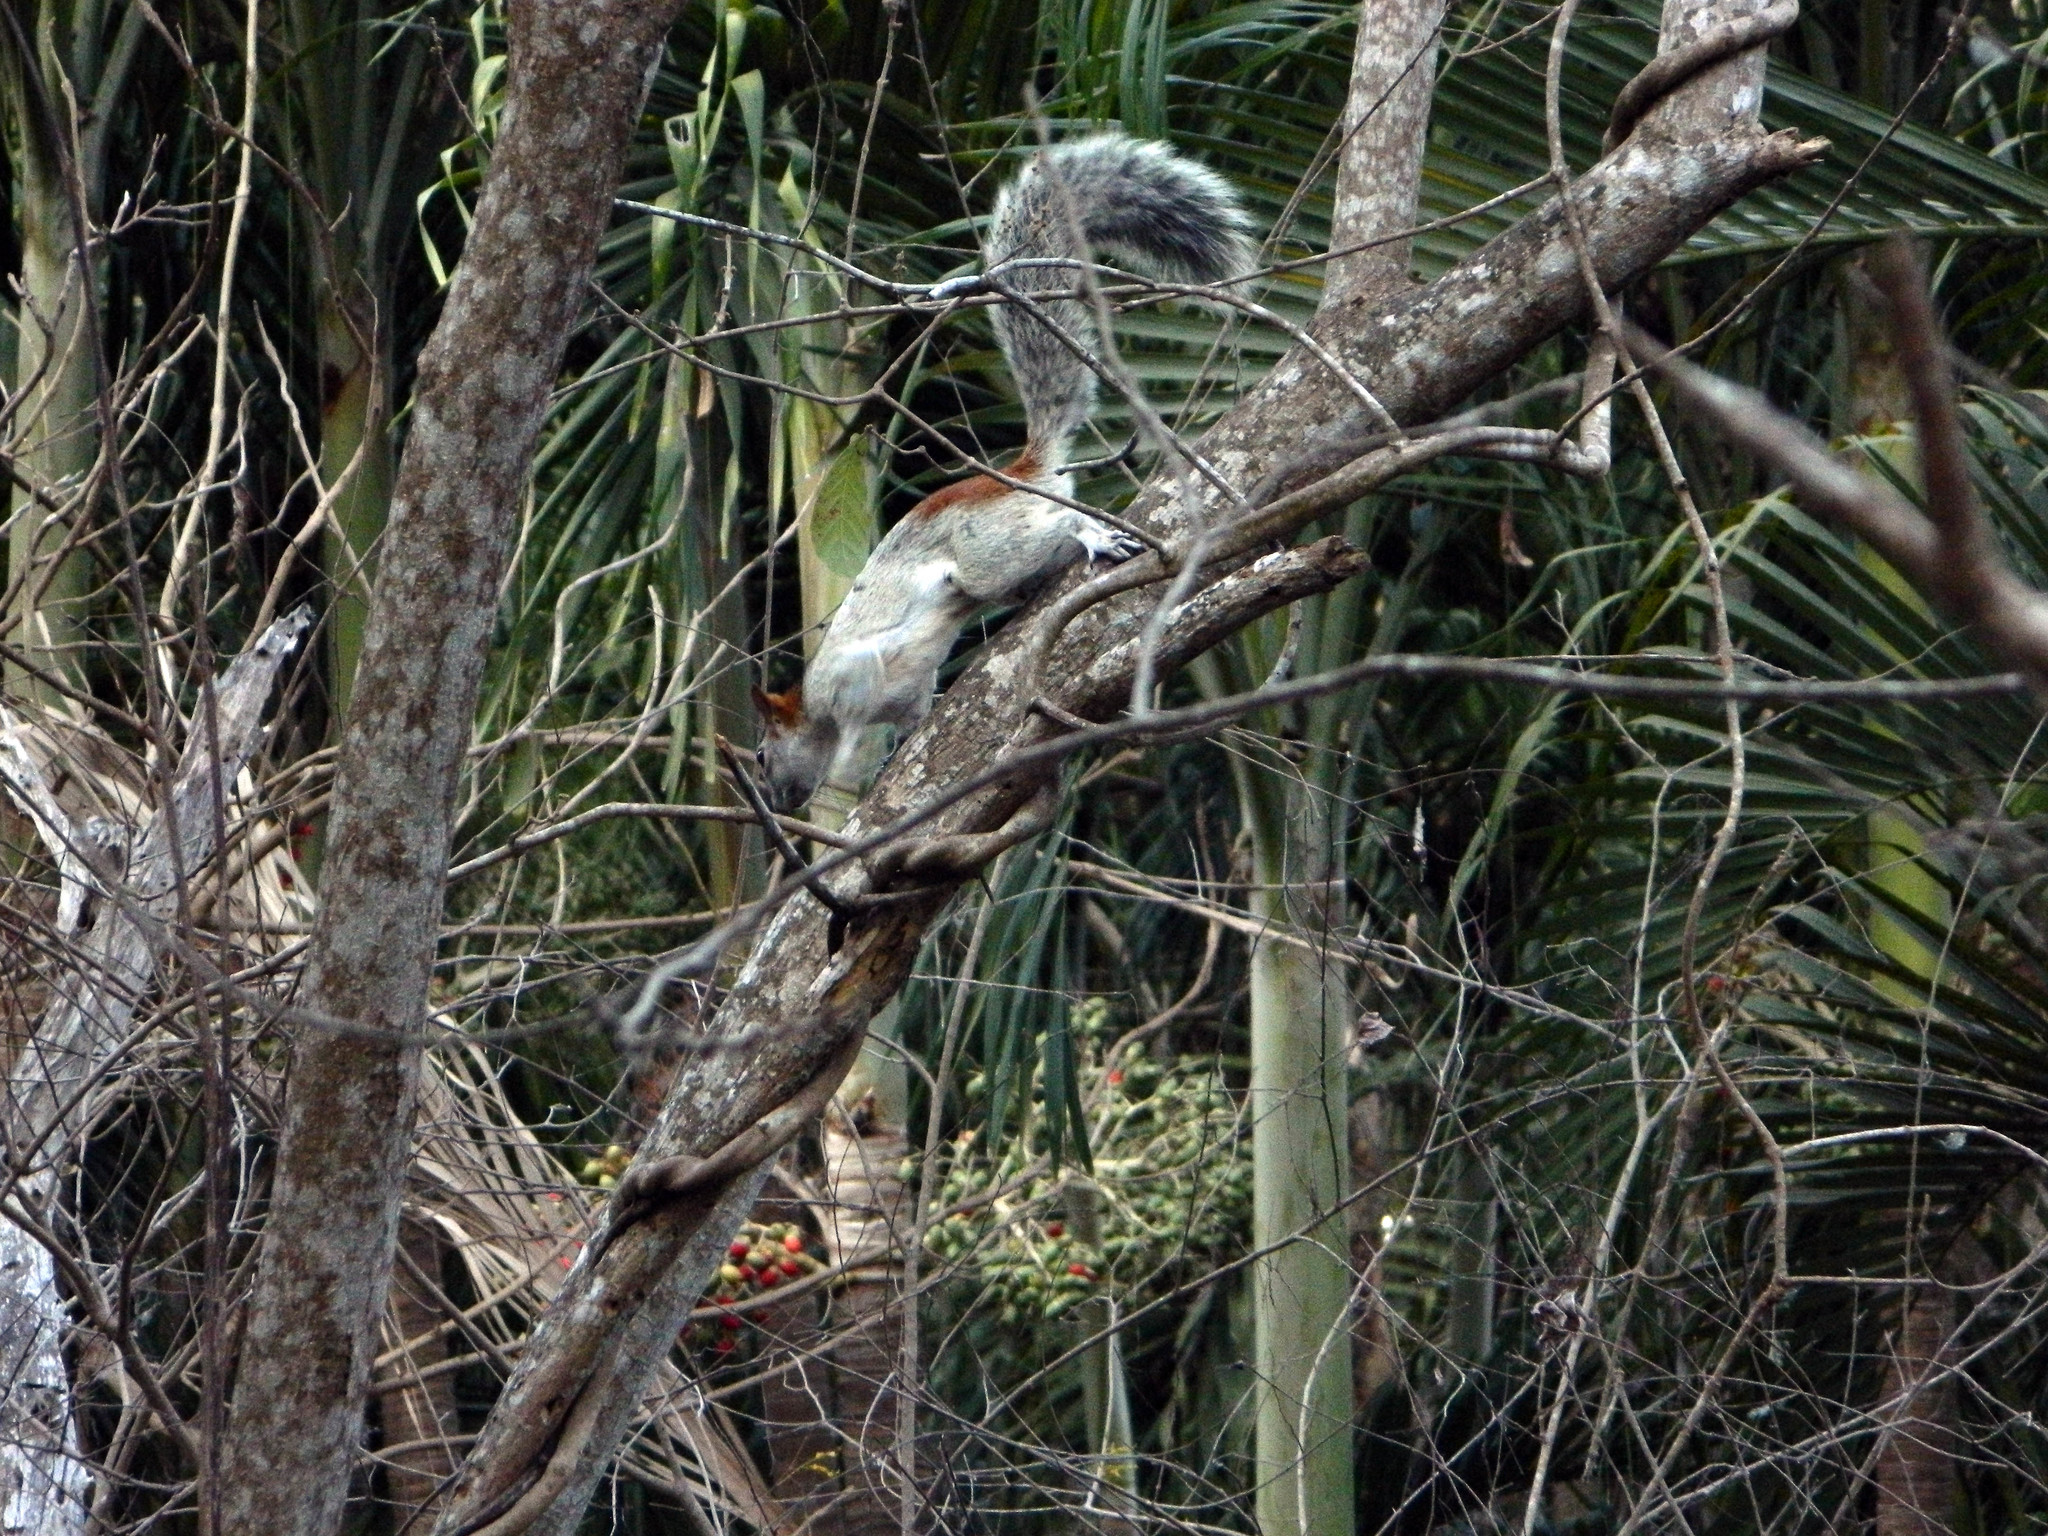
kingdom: Animalia
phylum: Chordata
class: Mammalia
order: Rodentia
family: Sciuridae
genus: Sciurus
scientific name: Sciurus aureogaster
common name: Red-bellied squirrel
